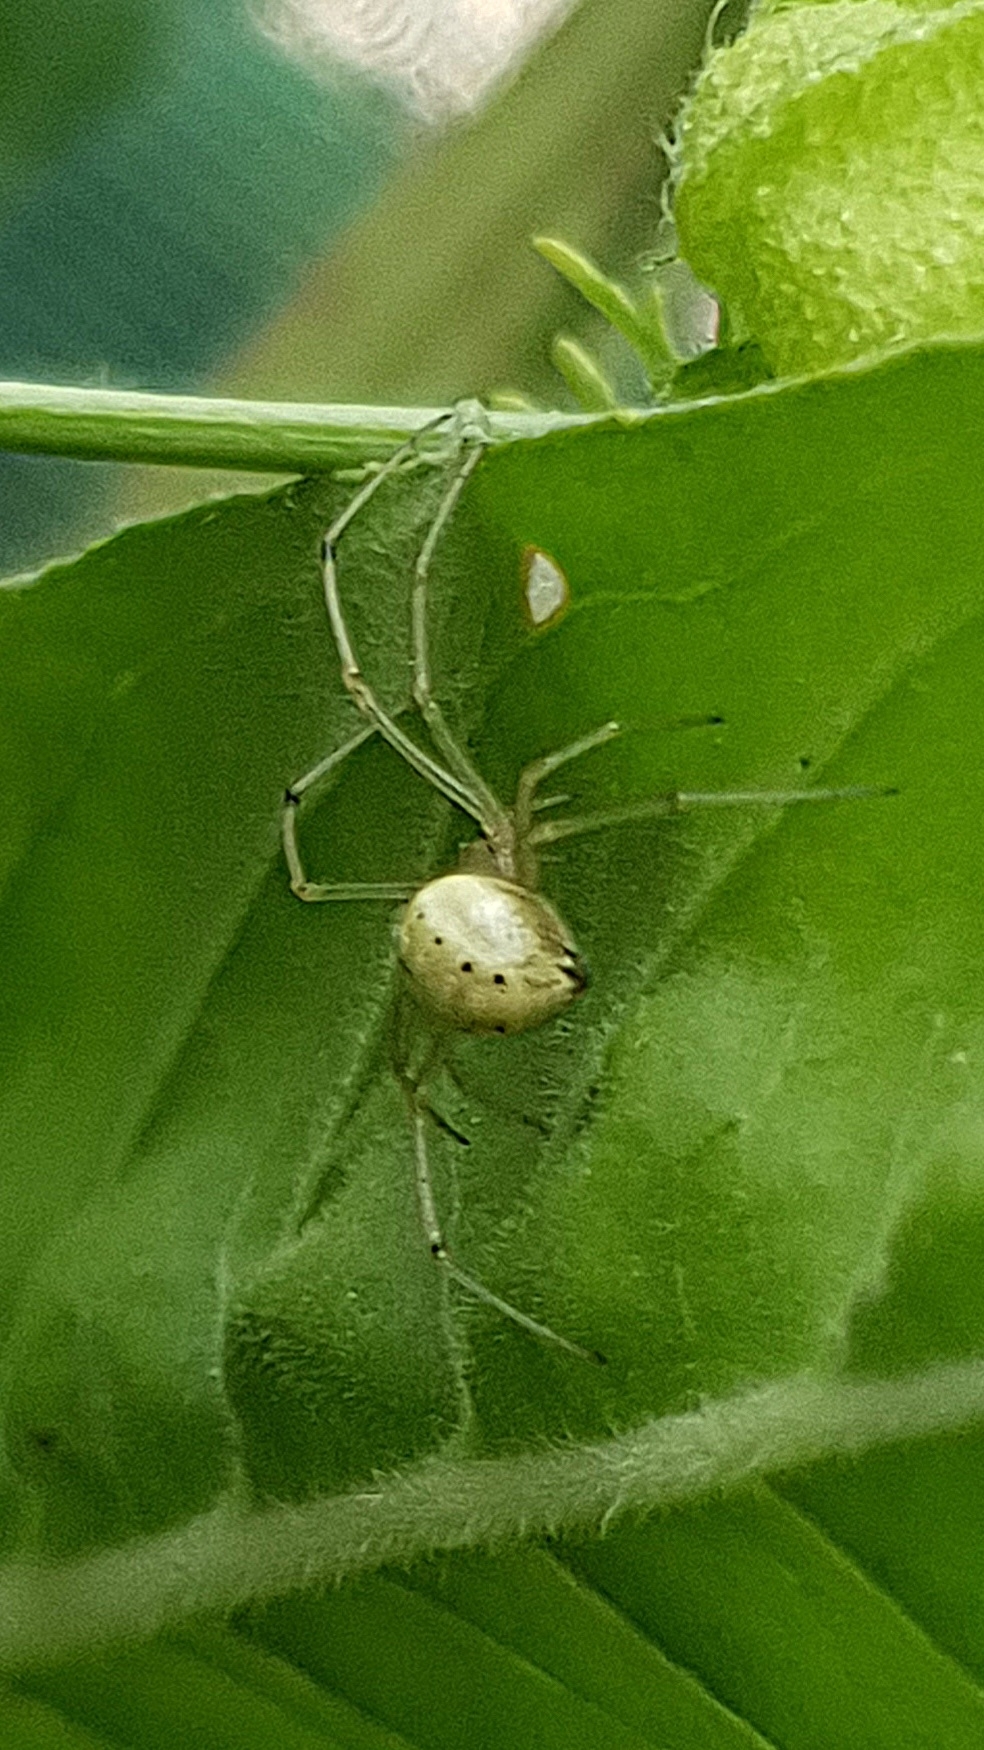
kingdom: Animalia
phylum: Arthropoda
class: Arachnida
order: Araneae
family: Theridiidae
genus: Enoplognatha
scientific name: Enoplognatha
